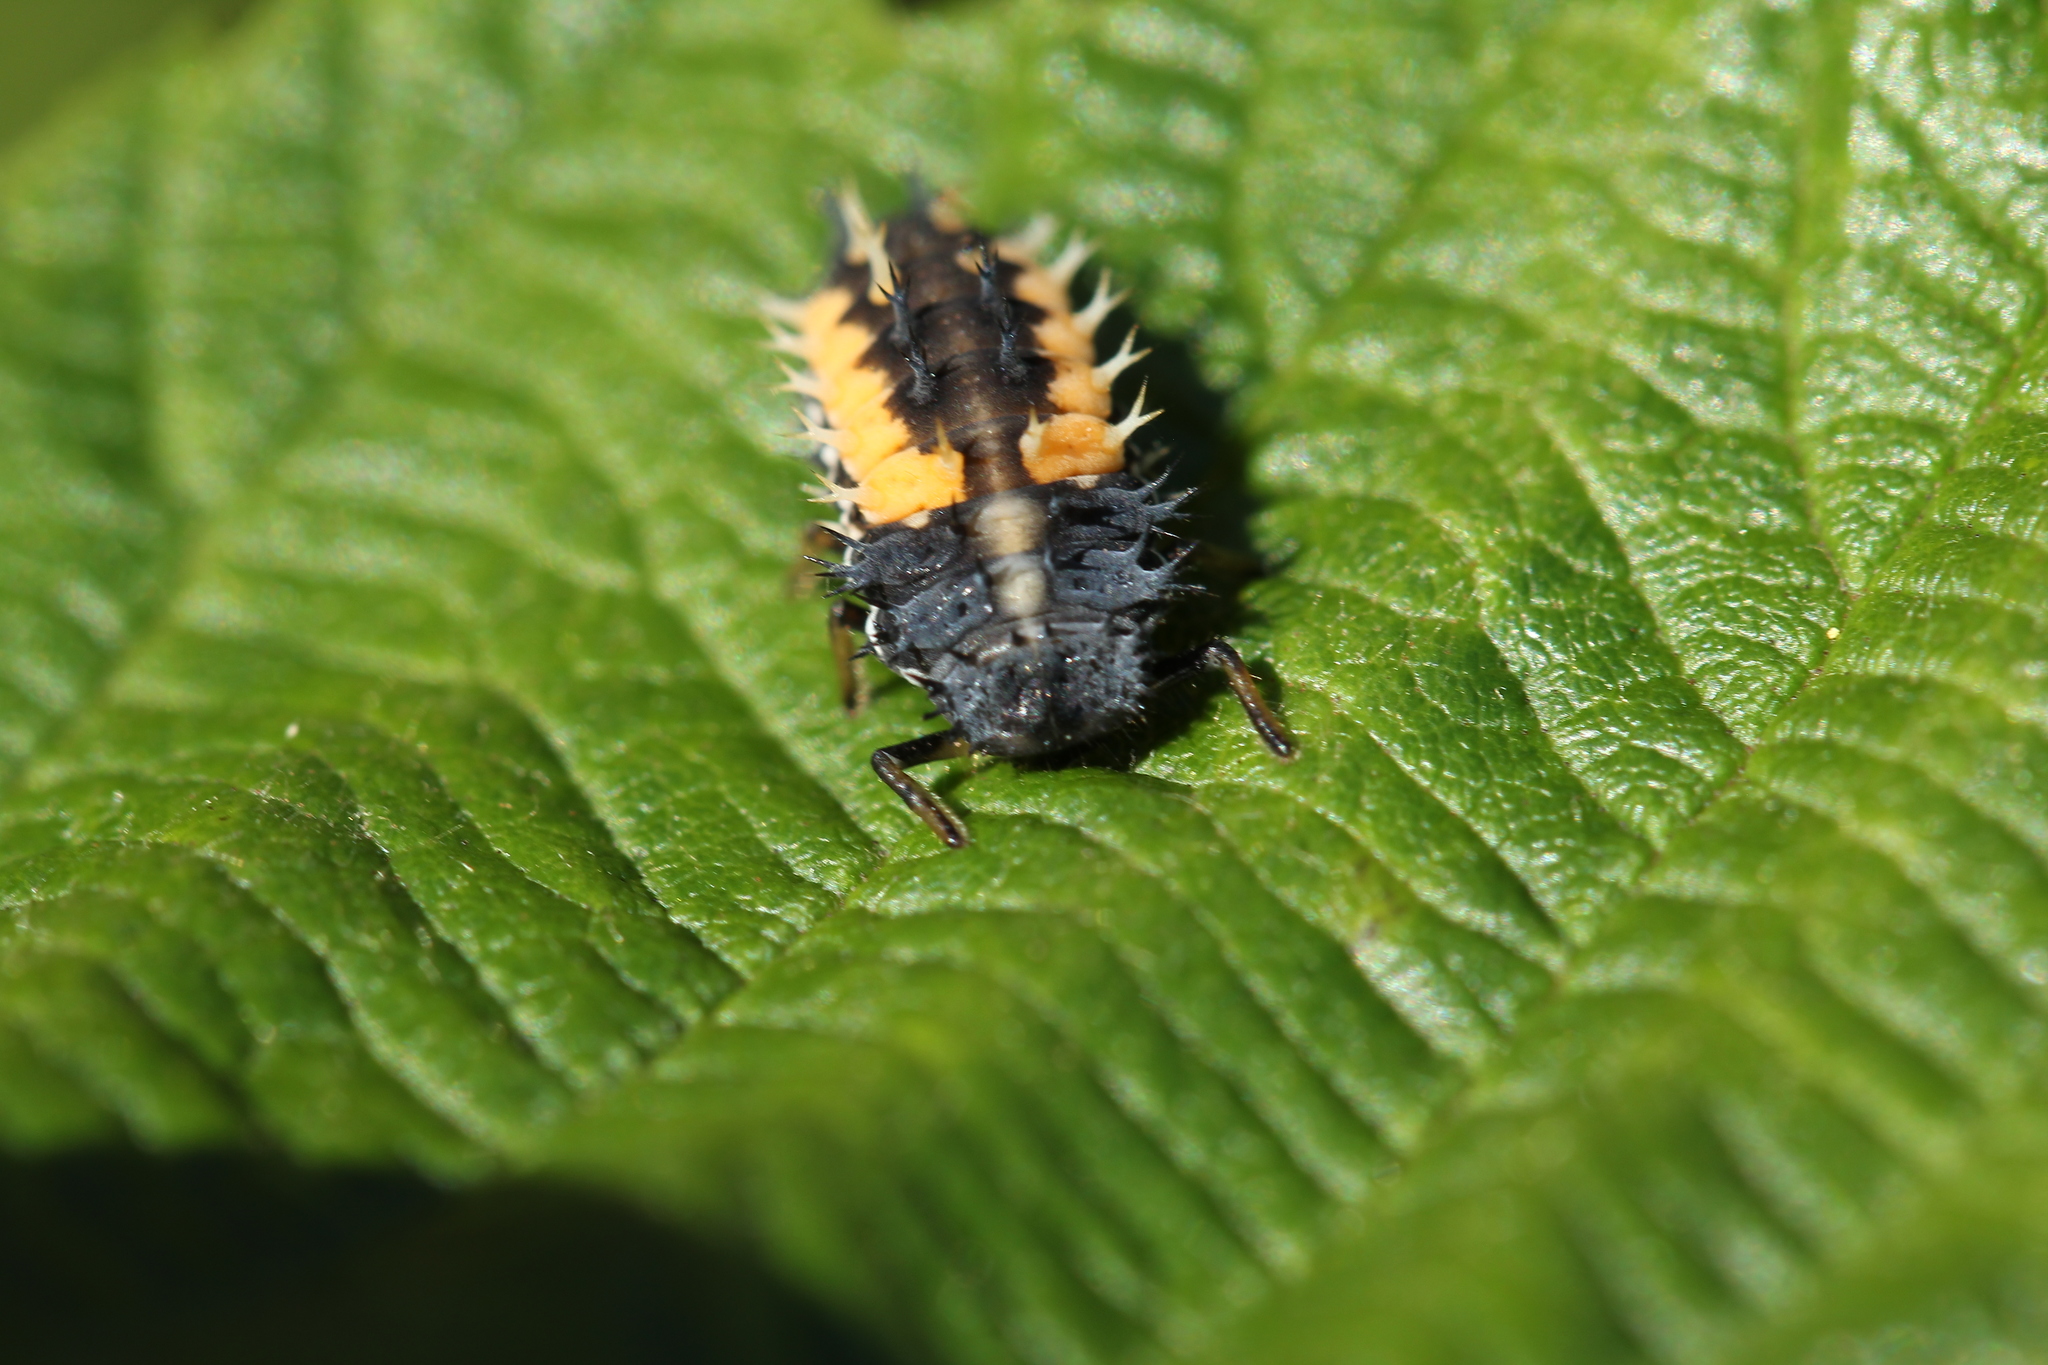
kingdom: Animalia
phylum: Arthropoda
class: Insecta
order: Coleoptera
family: Coccinellidae
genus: Harmonia
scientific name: Harmonia axyridis
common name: Harlequin ladybird
